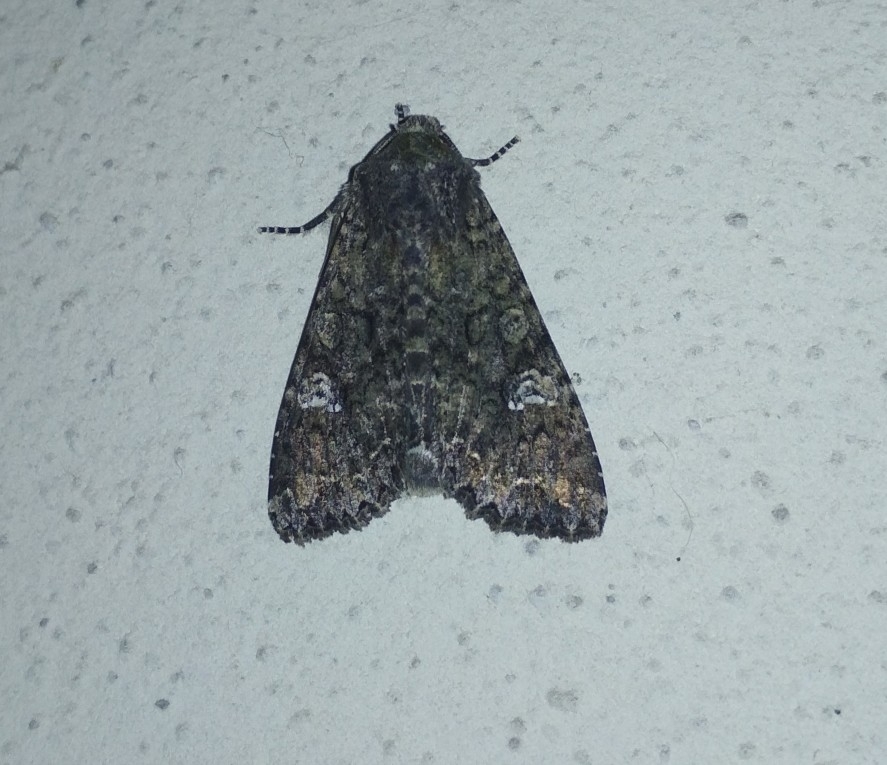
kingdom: Animalia
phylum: Arthropoda
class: Insecta
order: Lepidoptera
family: Noctuidae
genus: Mamestra
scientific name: Mamestra brassicae
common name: Cabbage moth
